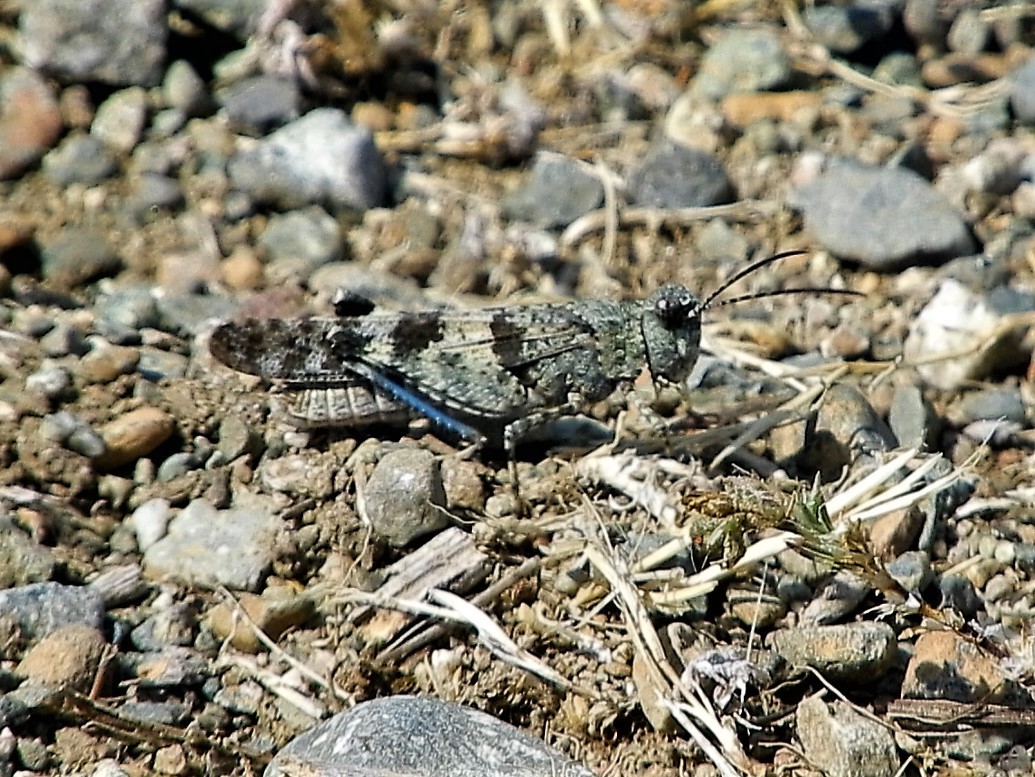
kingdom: Animalia
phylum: Arthropoda
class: Insecta
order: Orthoptera
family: Acrididae
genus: Trimerotropis
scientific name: Trimerotropis fontana
